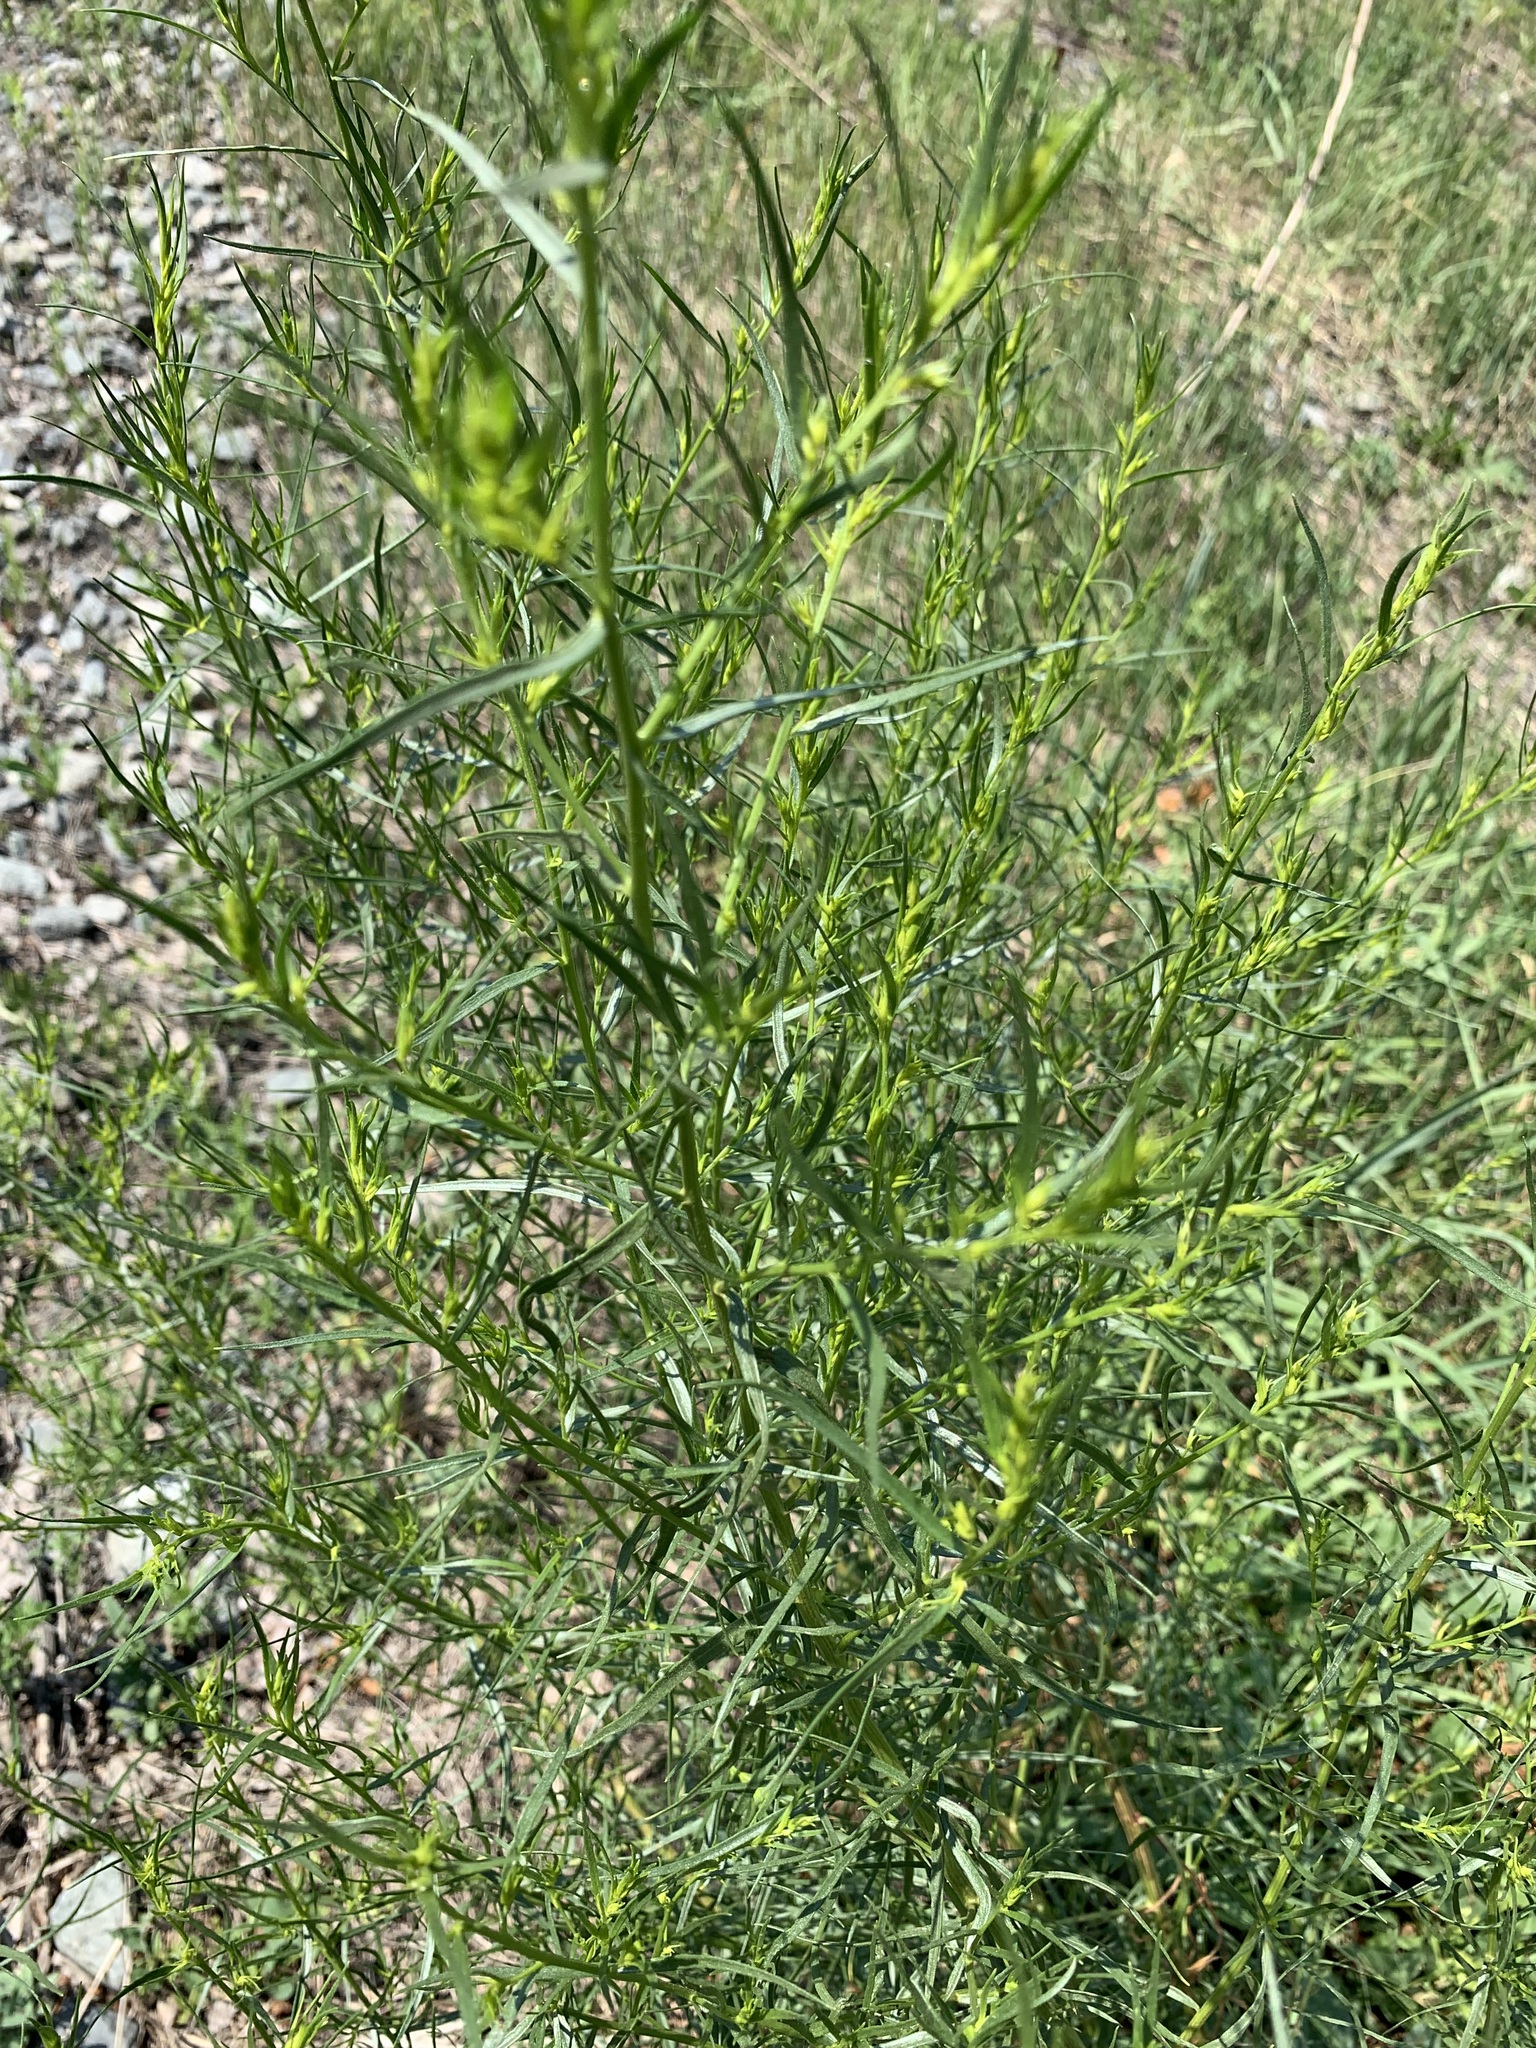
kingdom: Plantae
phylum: Tracheophyta
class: Magnoliopsida
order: Asterales
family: Asteraceae
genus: Artemisia
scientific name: Artemisia dracunculus
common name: Tarragon
